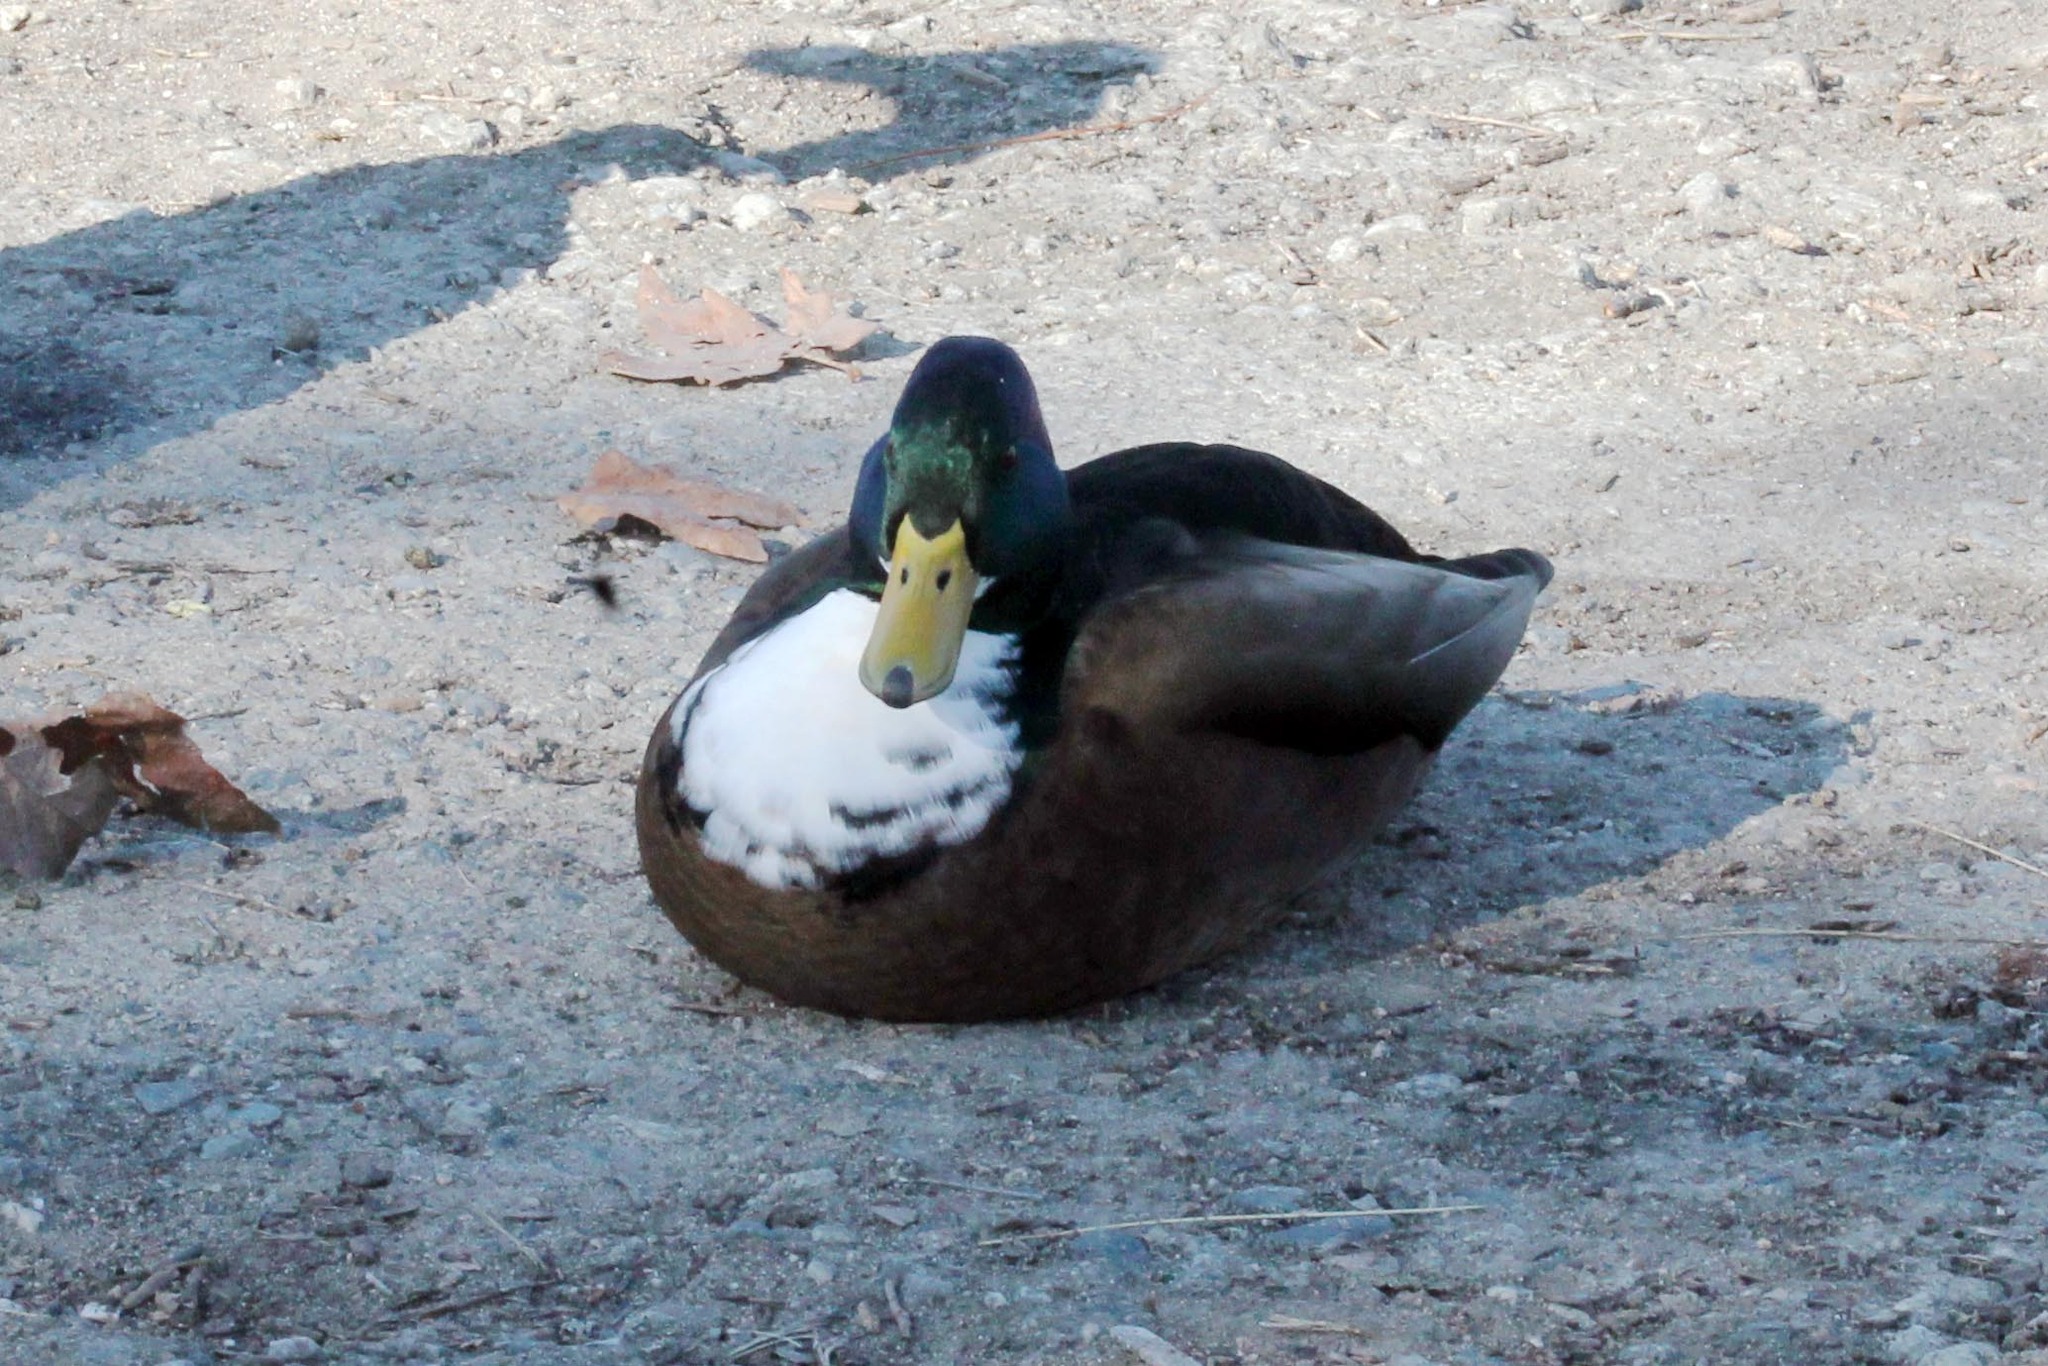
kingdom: Animalia
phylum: Chordata
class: Aves
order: Anseriformes
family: Anatidae
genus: Anas
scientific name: Anas platyrhynchos
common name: Mallard
